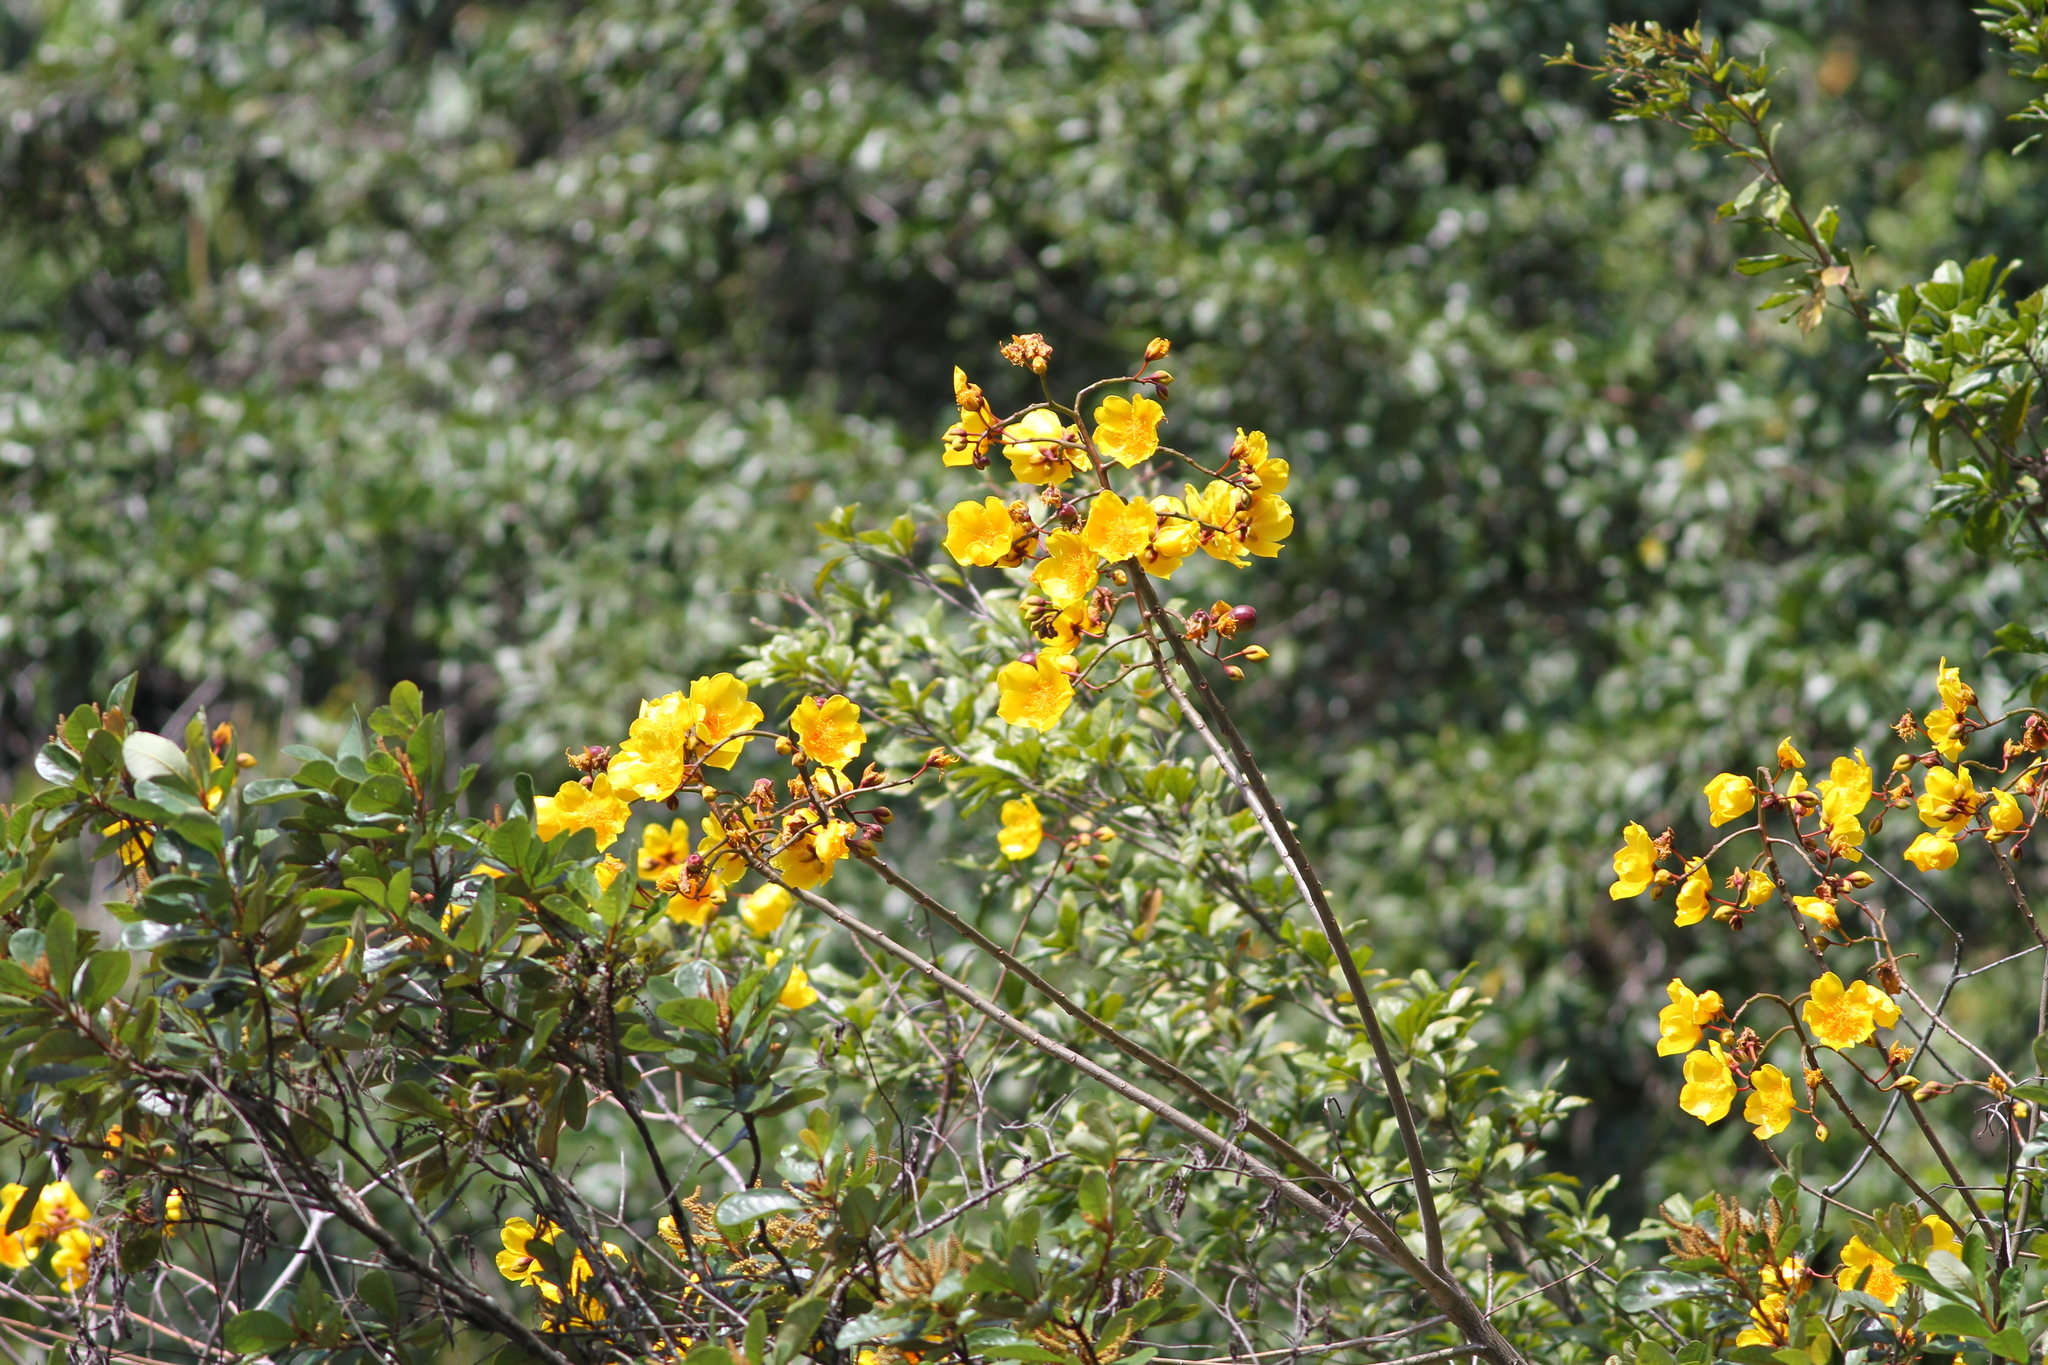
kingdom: Plantae
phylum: Tracheophyta
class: Magnoliopsida
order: Malvales
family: Cochlospermaceae
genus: Cochlospermum
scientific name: Cochlospermum vitifolium
